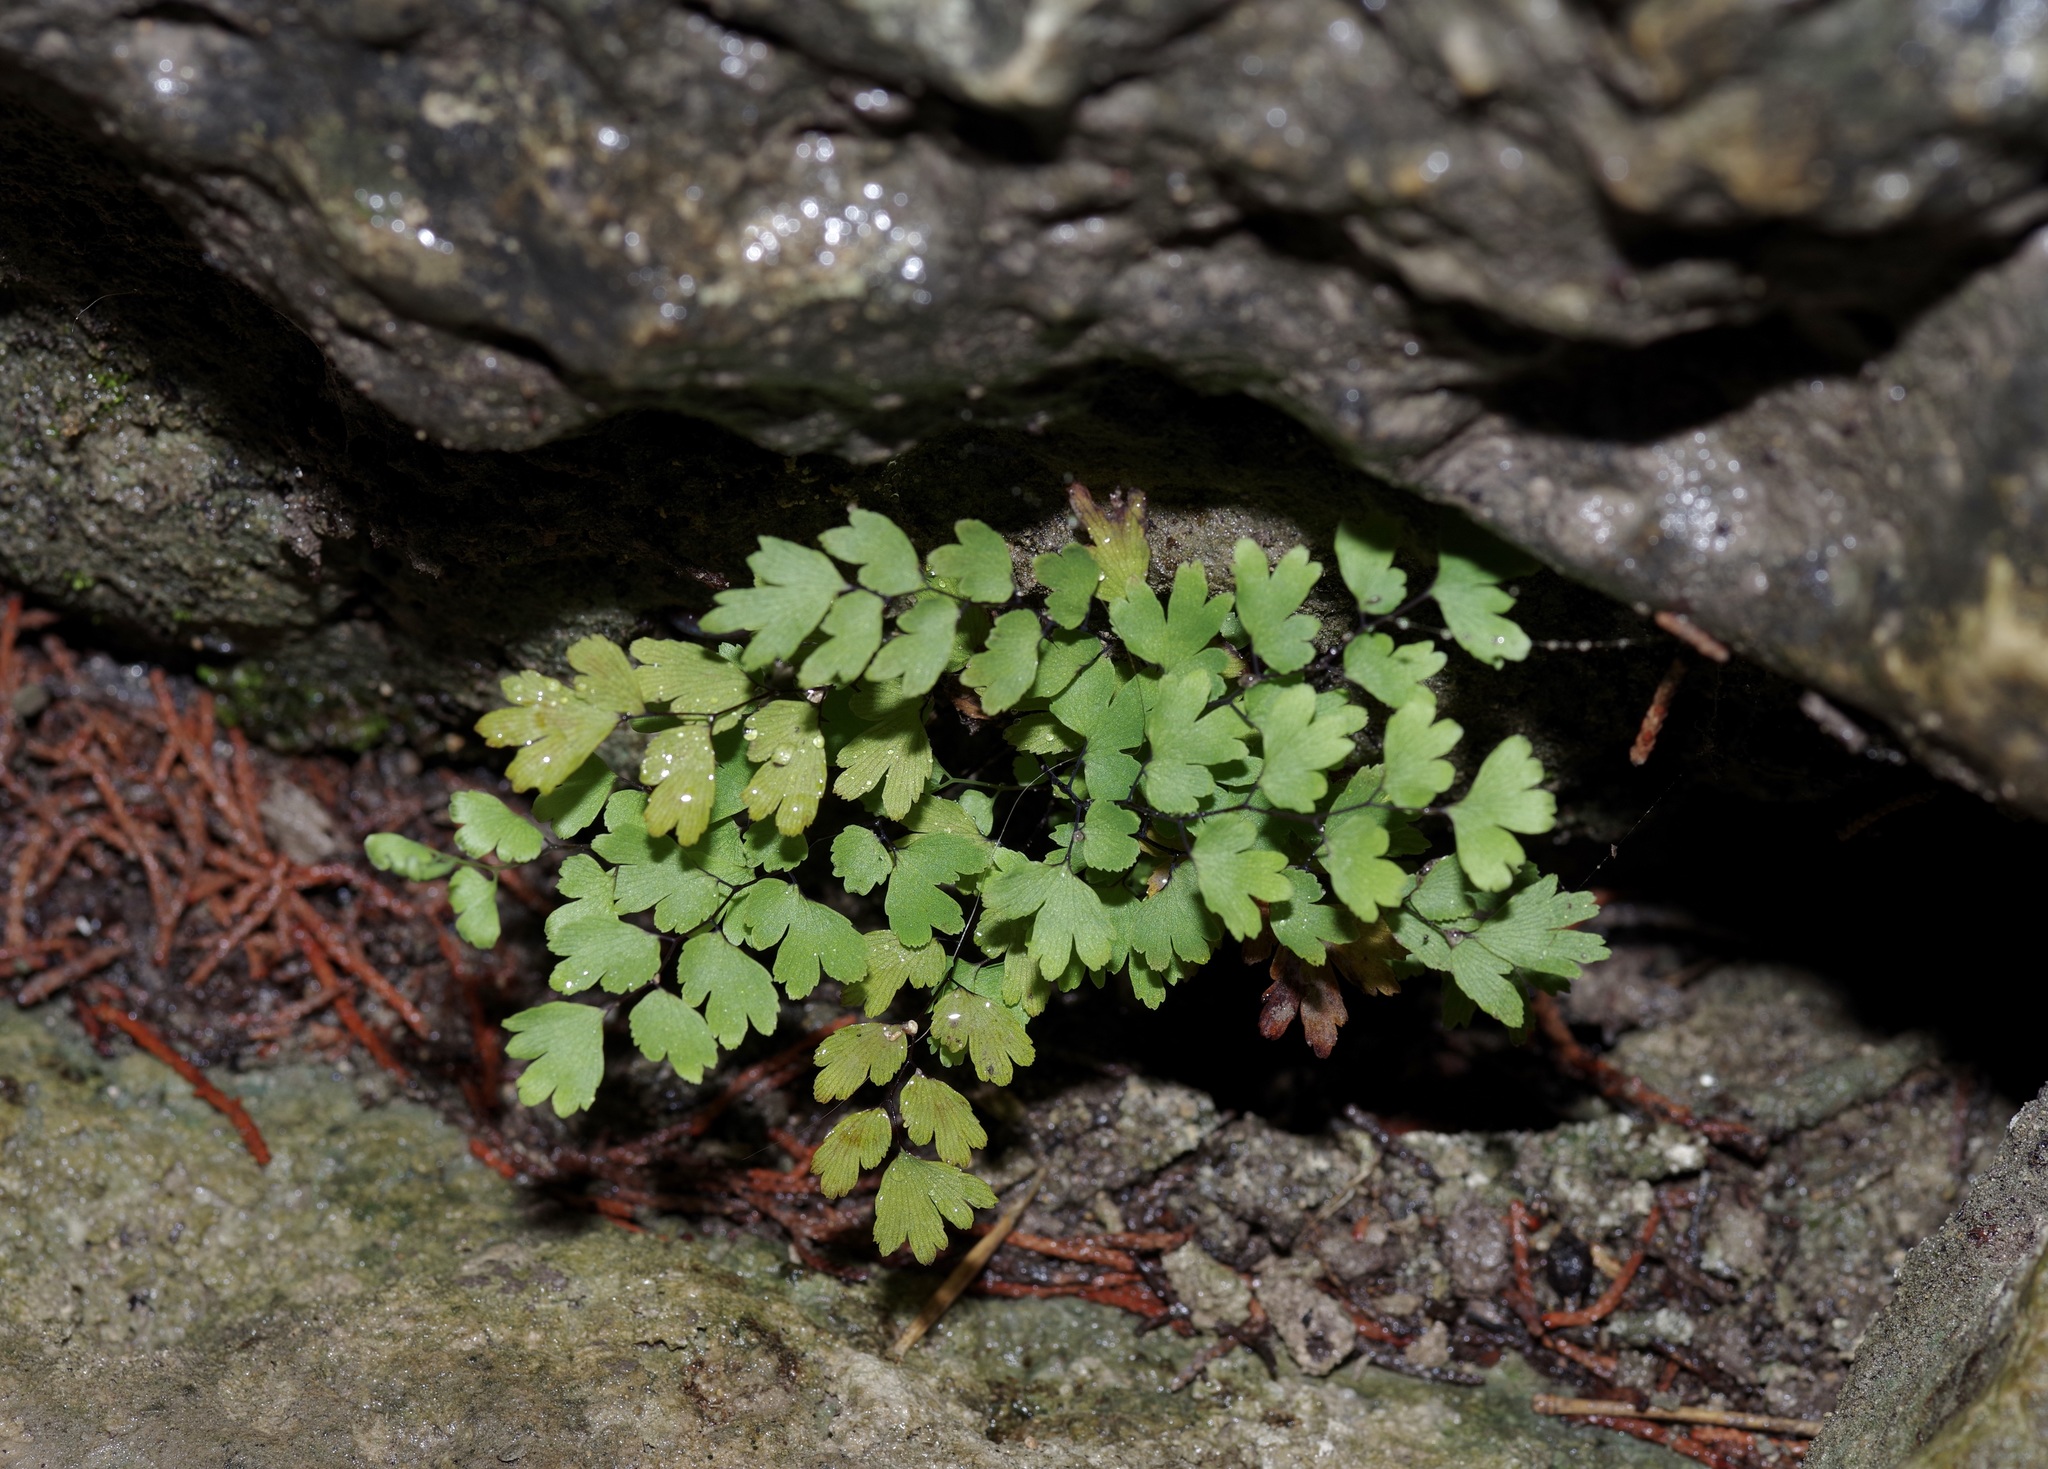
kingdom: Plantae
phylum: Tracheophyta
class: Polypodiopsida
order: Polypodiales
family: Pteridaceae
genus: Adiantum
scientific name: Adiantum capillus-veneris
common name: Maidenhair fern
